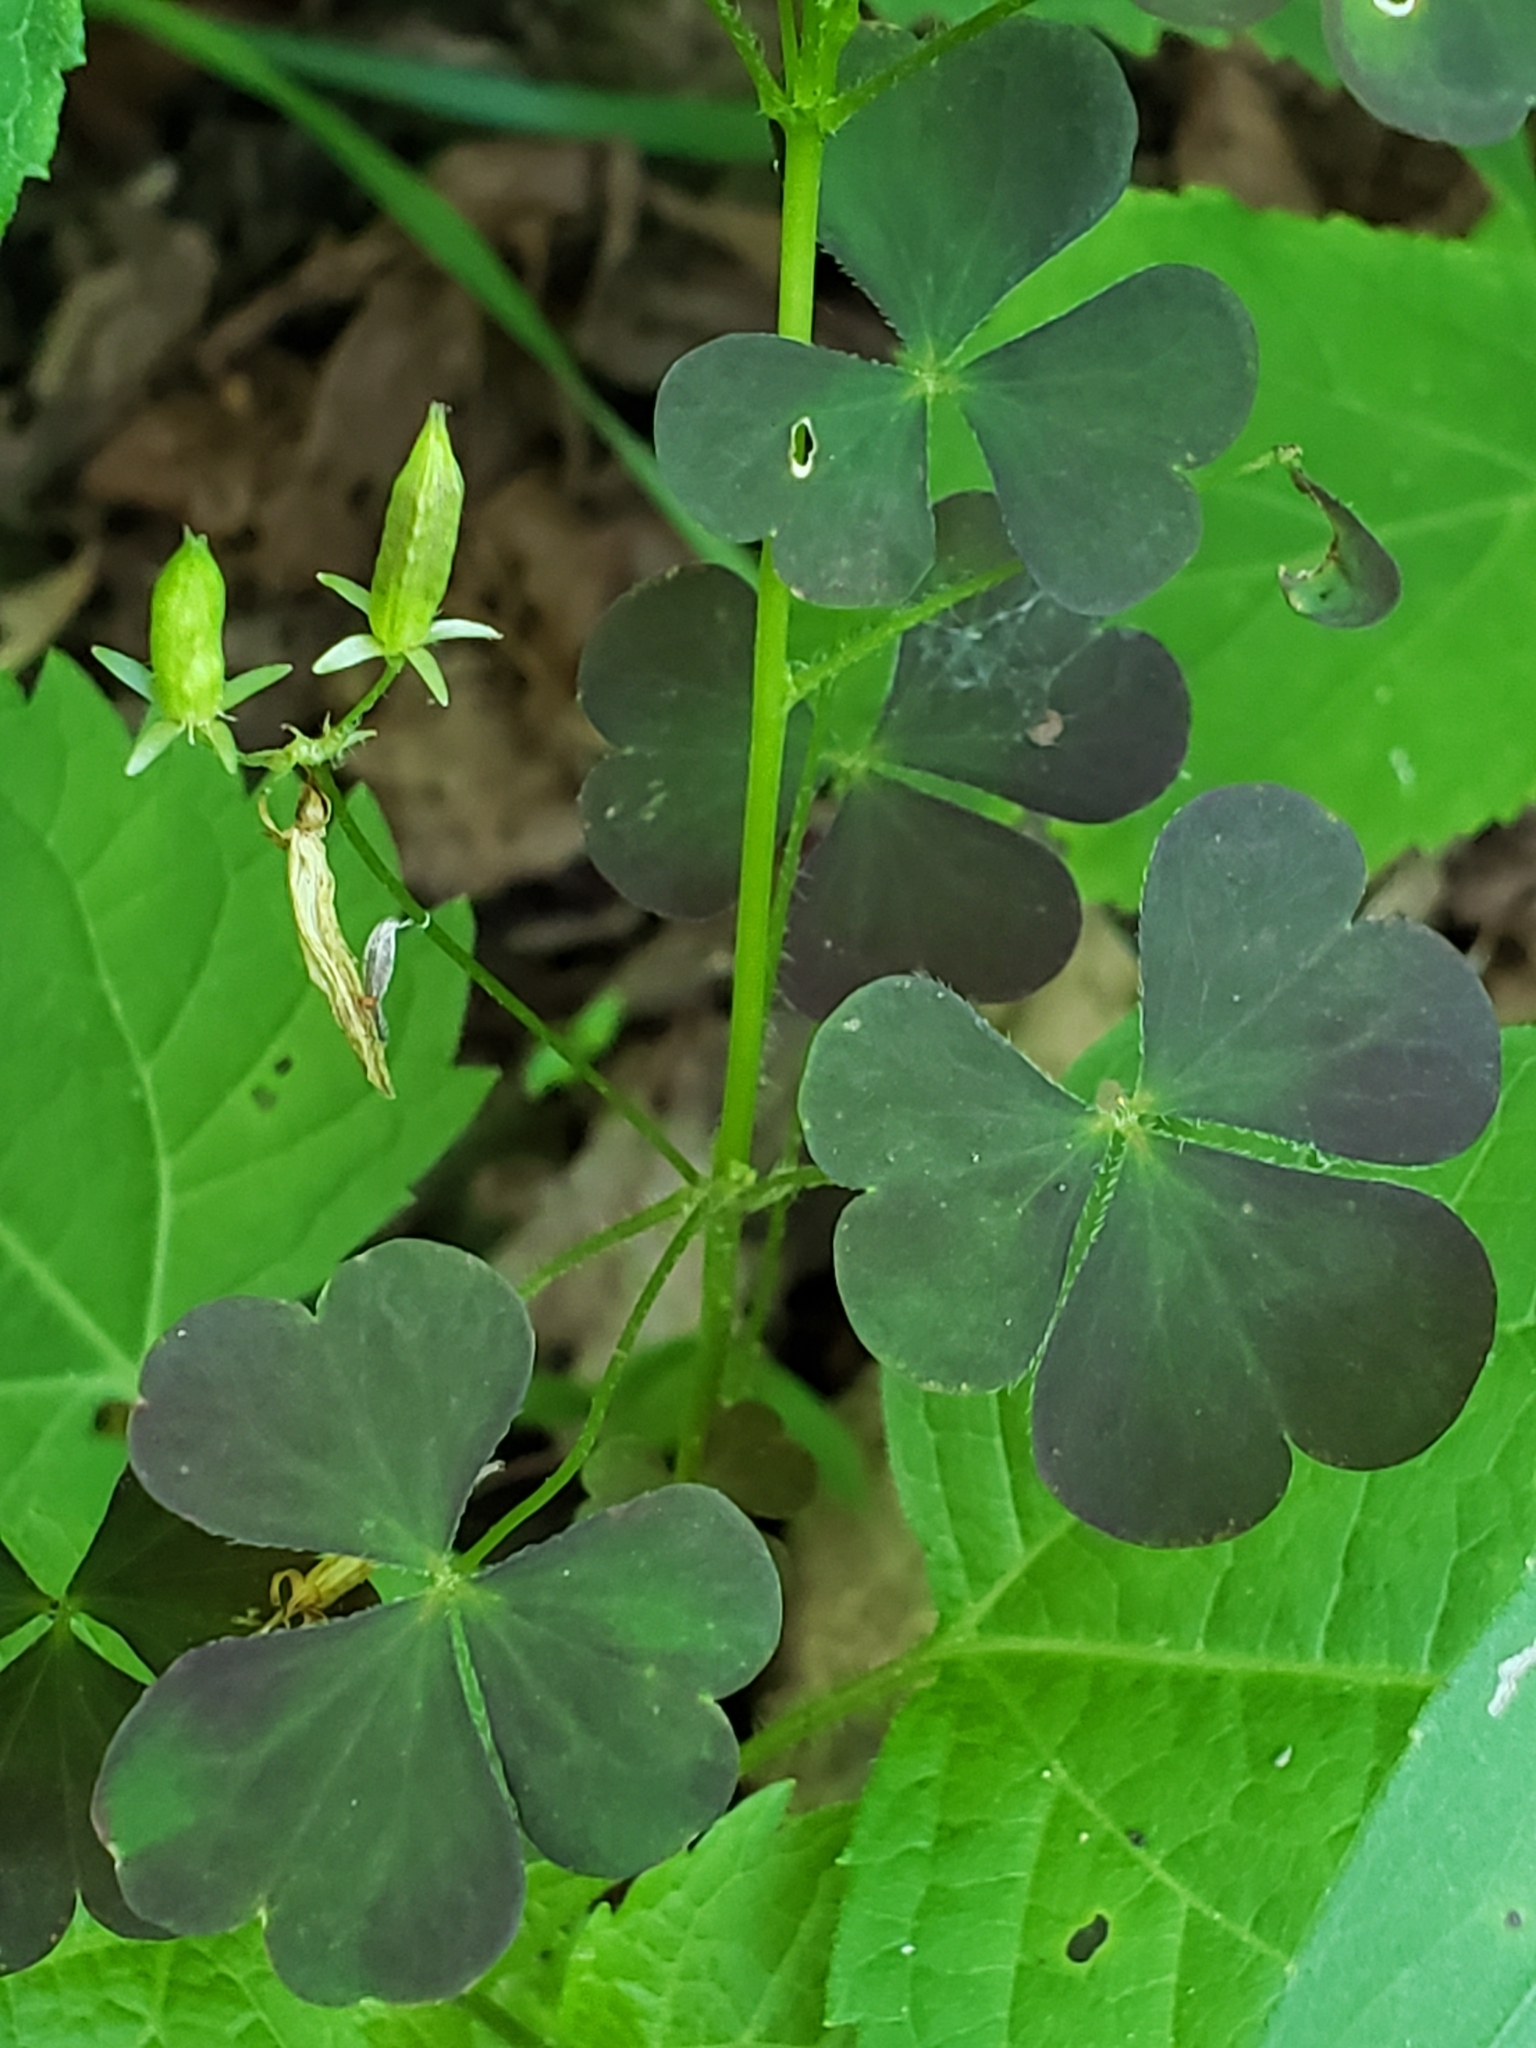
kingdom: Plantae
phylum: Tracheophyta
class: Magnoliopsida
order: Oxalidales
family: Oxalidaceae
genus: Oxalis
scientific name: Oxalis stricta
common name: Upright yellow-sorrel
